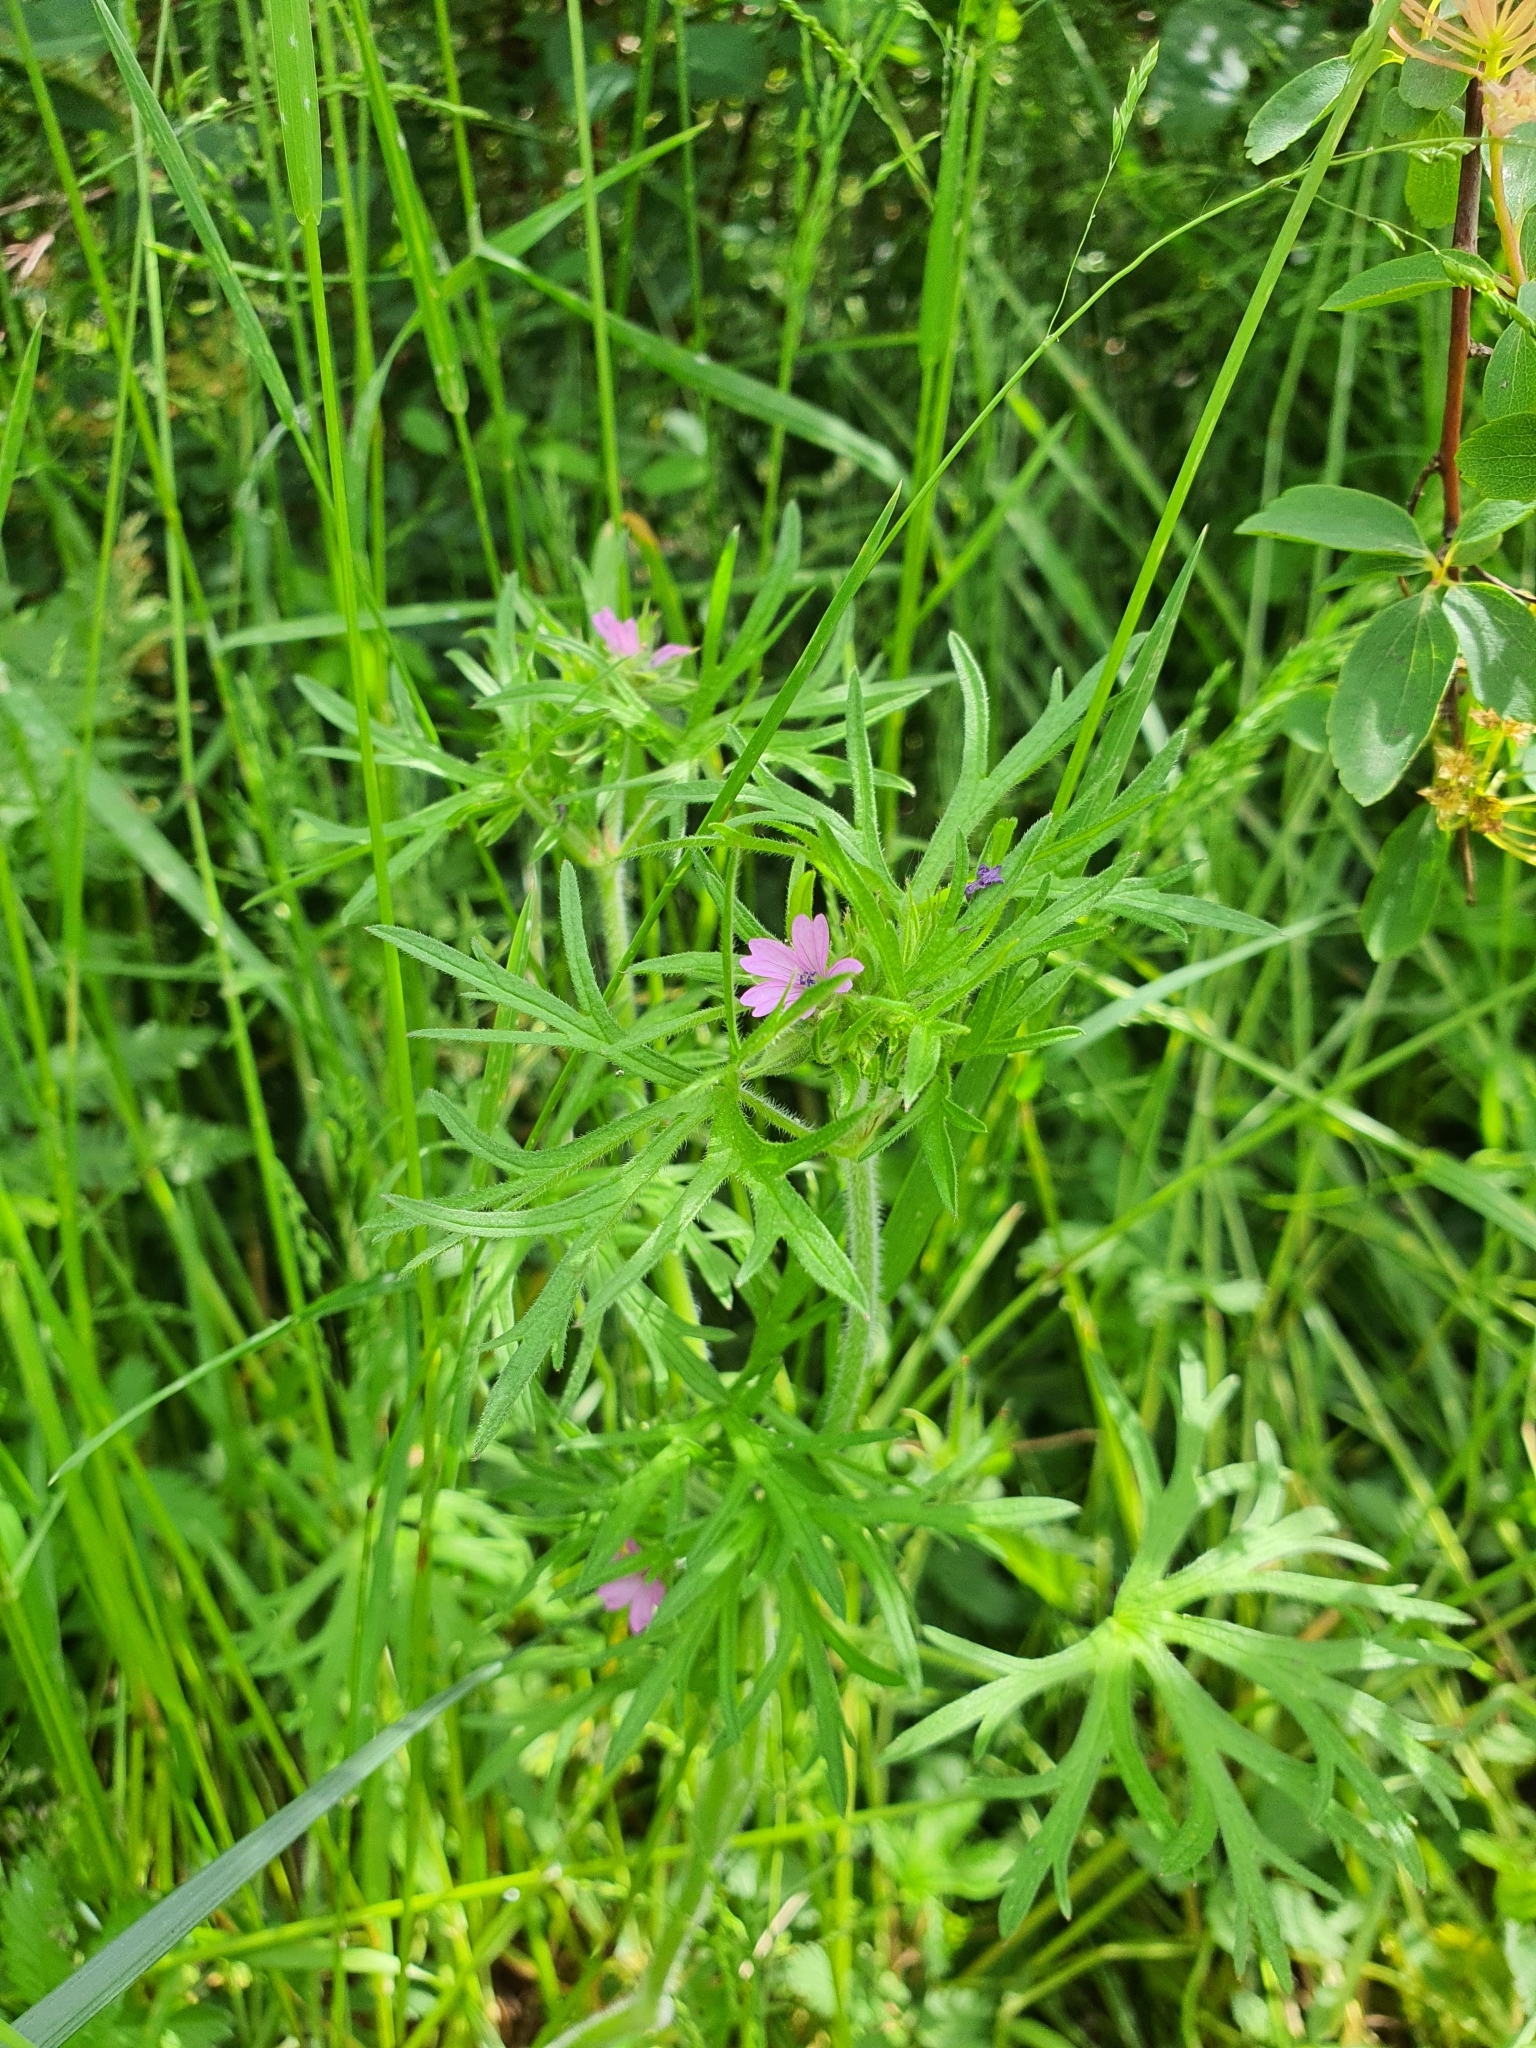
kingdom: Plantae
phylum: Tracheophyta
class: Magnoliopsida
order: Geraniales
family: Geraniaceae
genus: Geranium
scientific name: Geranium dissectum
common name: Cut-leaved crane's-bill
